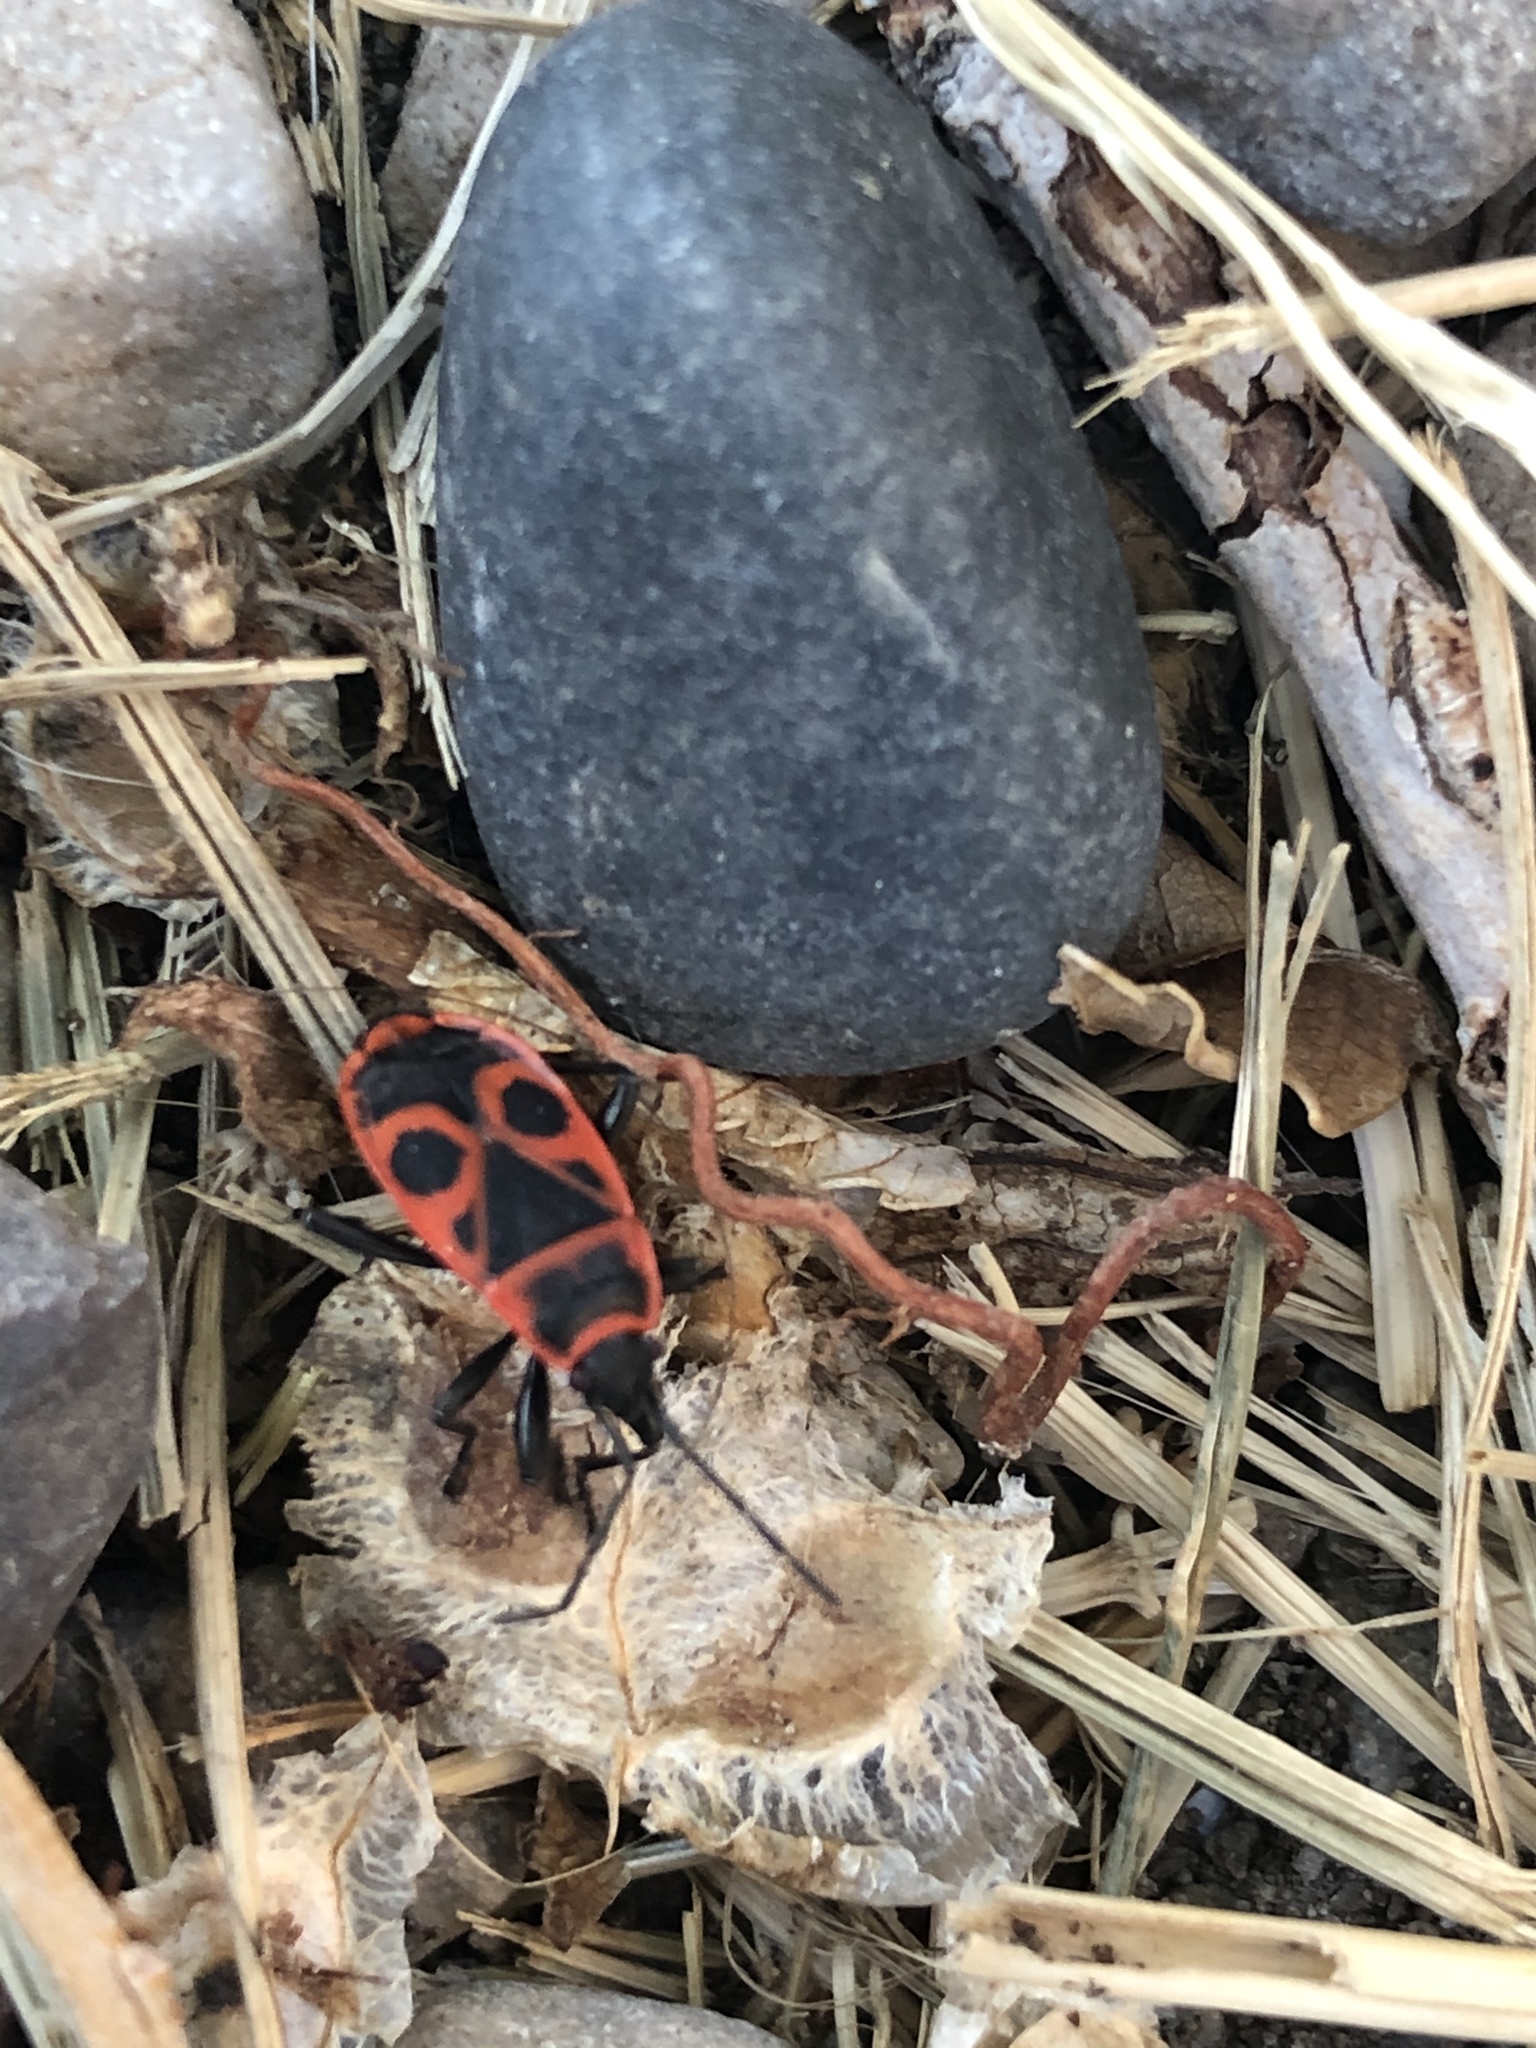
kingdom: Animalia
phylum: Arthropoda
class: Insecta
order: Hemiptera
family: Pyrrhocoridae
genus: Pyrrhocoris
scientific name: Pyrrhocoris apterus
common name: Firebug
